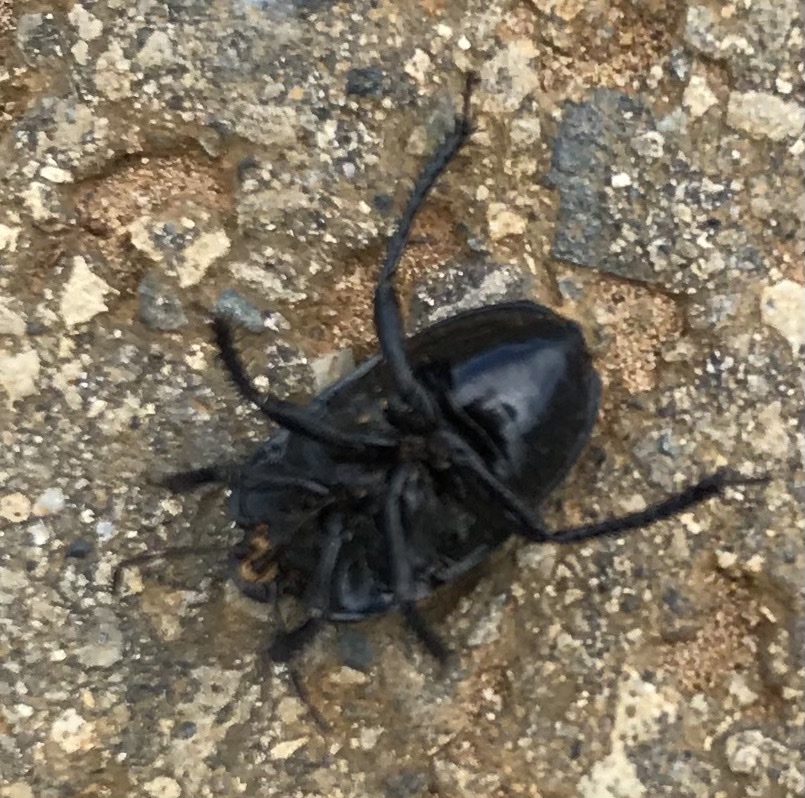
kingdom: Animalia
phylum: Arthropoda
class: Insecta
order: Hemiptera
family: Cydnidae
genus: Cydnus
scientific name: Cydnus aterrimus
